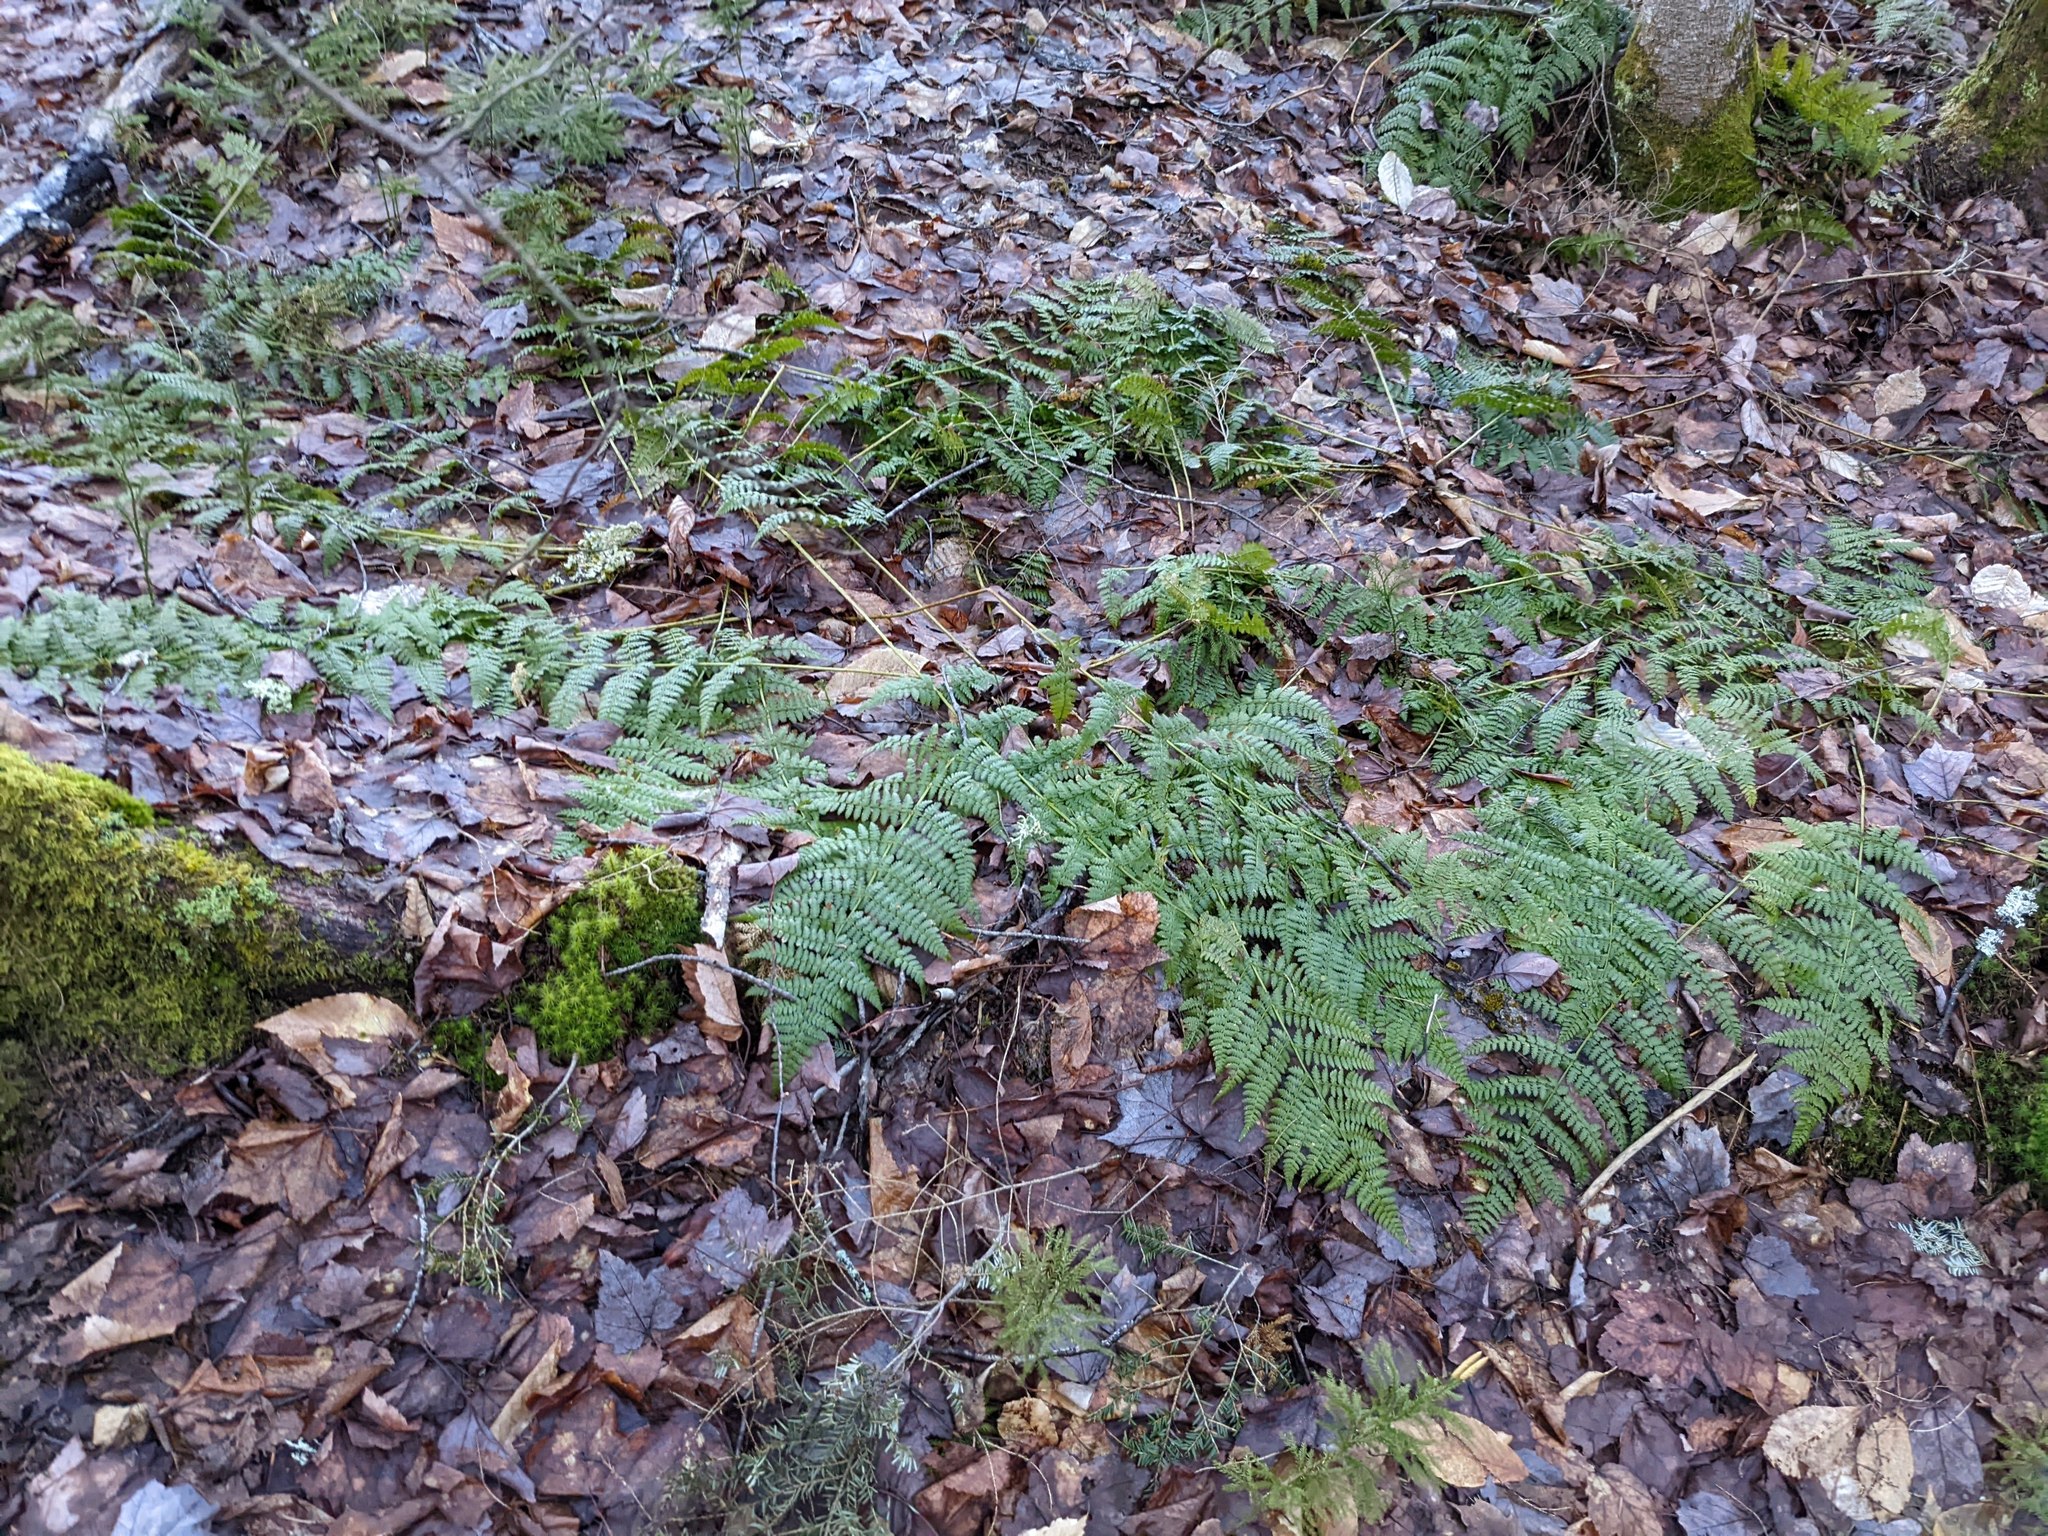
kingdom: Plantae
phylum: Tracheophyta
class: Polypodiopsida
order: Polypodiales
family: Dryopteridaceae
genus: Dryopteris
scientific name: Dryopteris intermedia
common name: Evergreen wood fern
